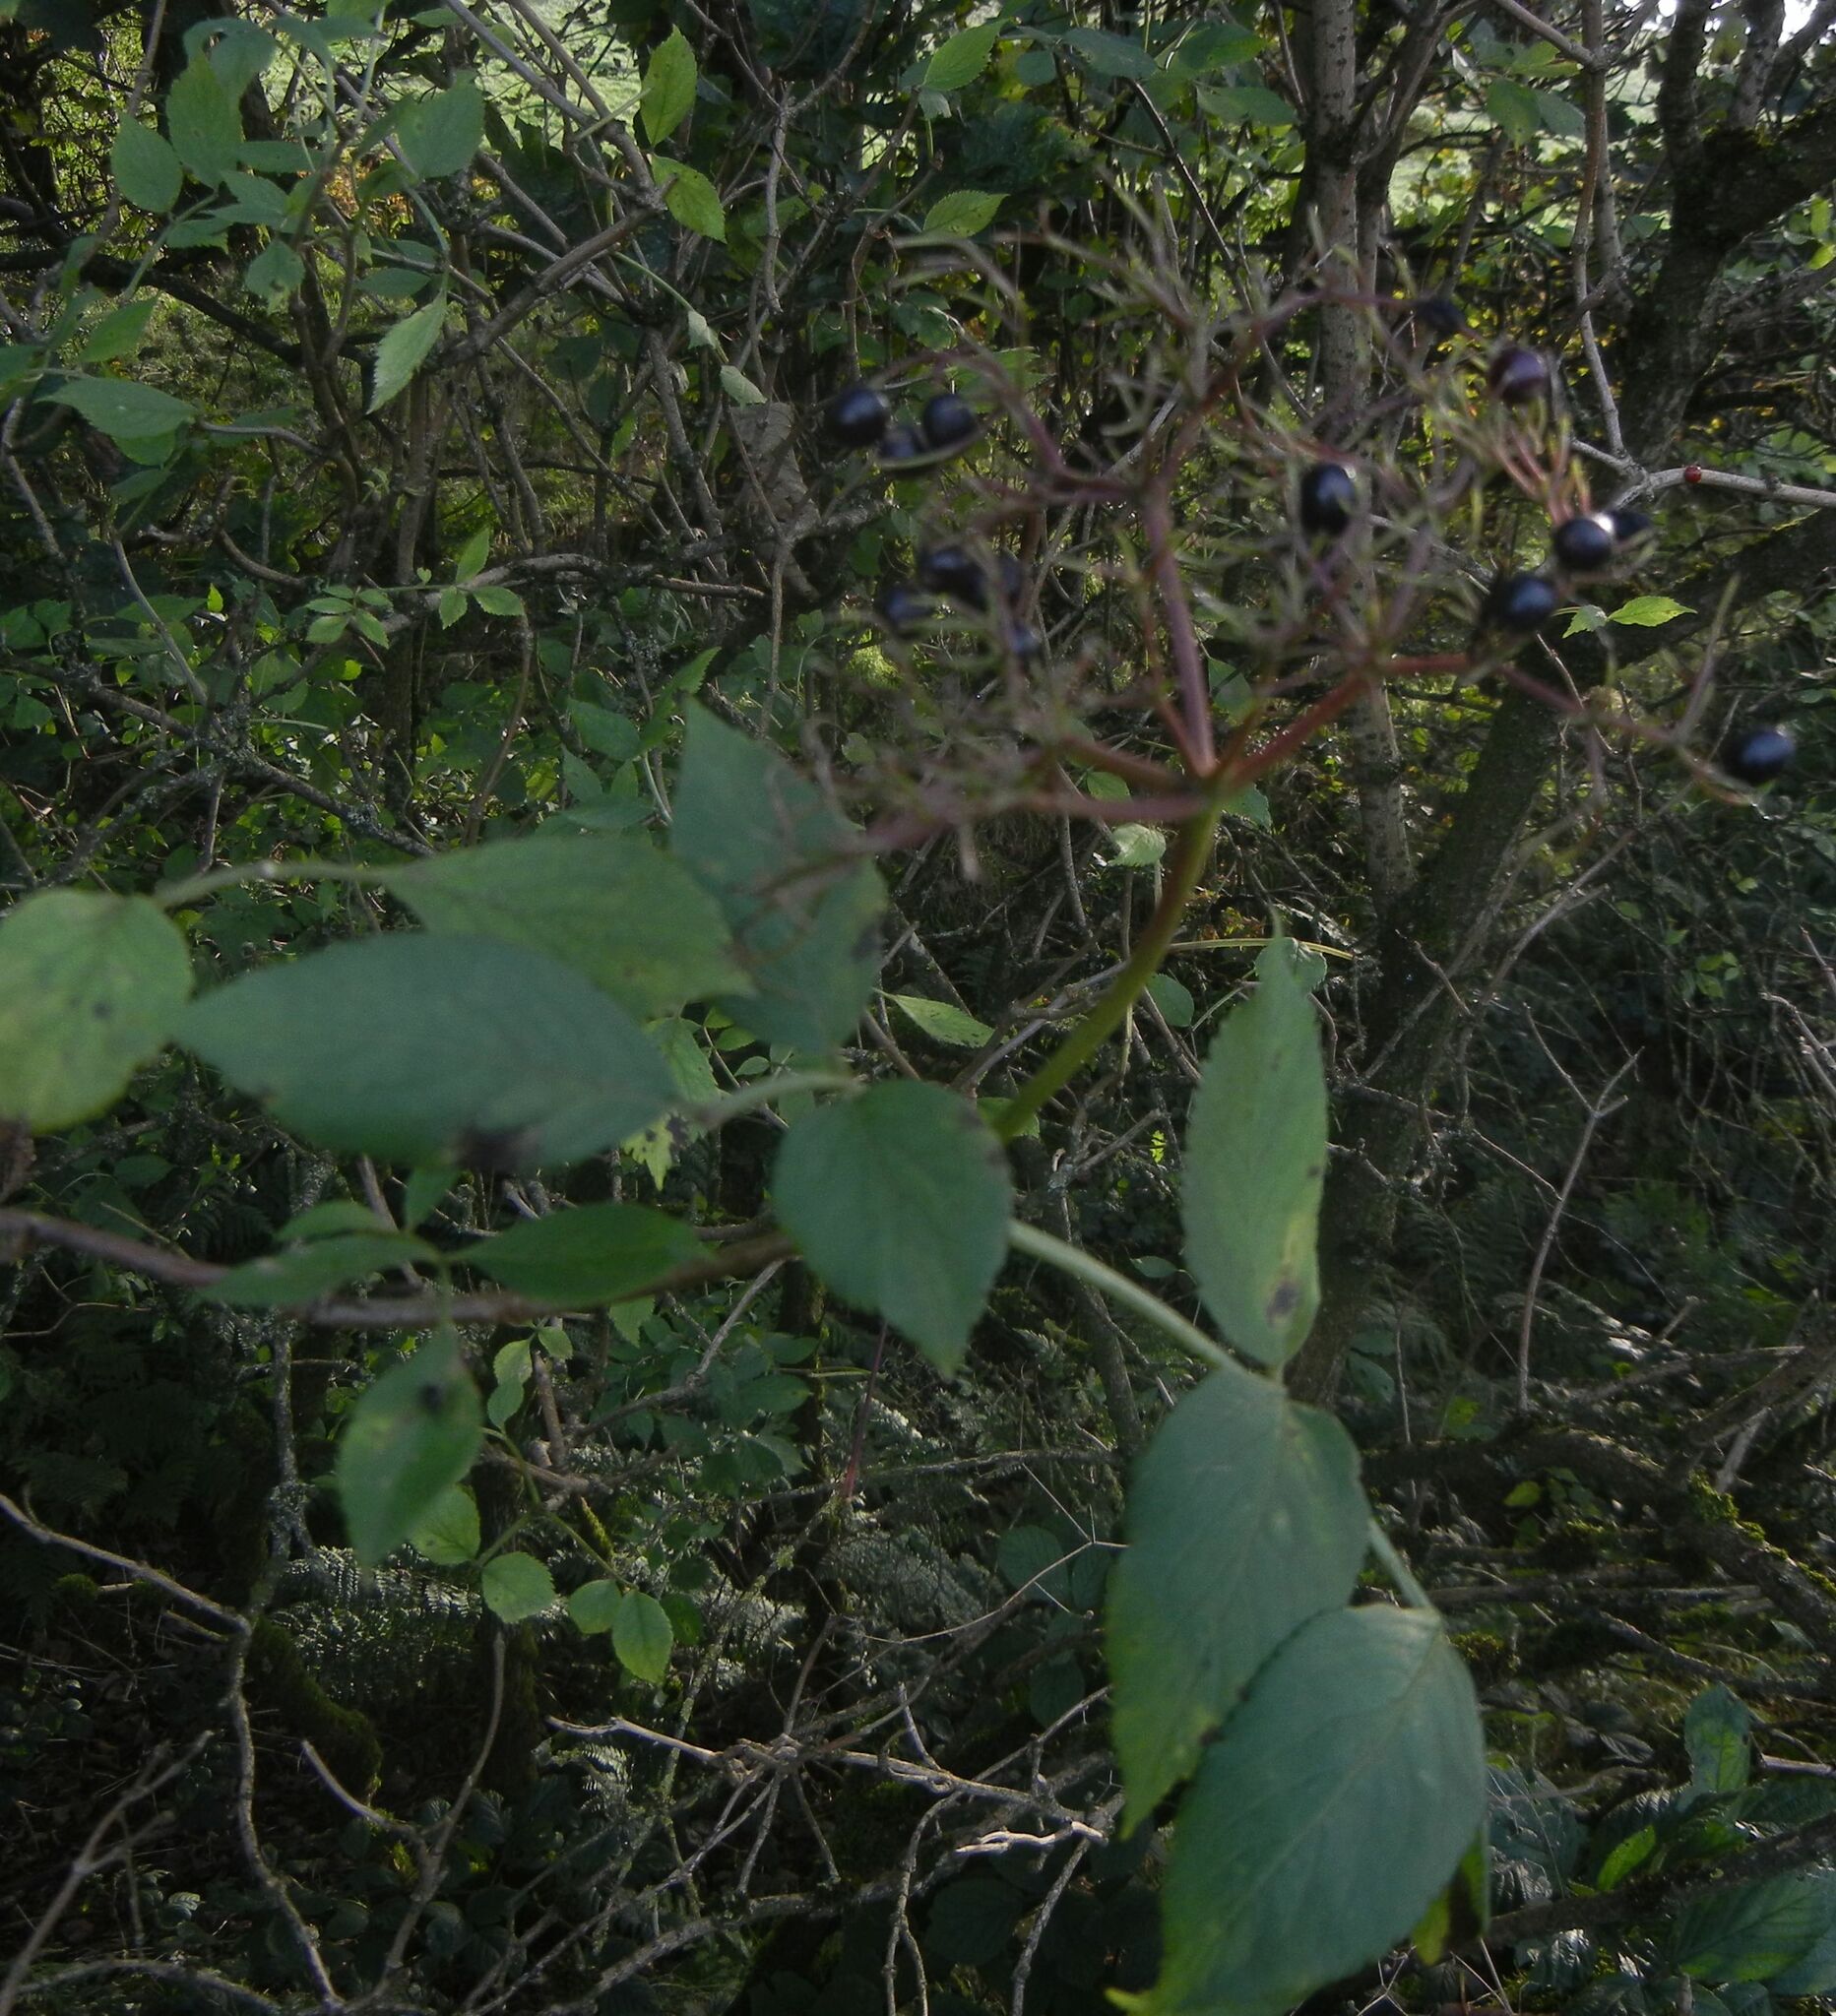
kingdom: Plantae
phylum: Tracheophyta
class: Magnoliopsida
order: Dipsacales
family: Viburnaceae
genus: Sambucus
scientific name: Sambucus nigra
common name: Elder
